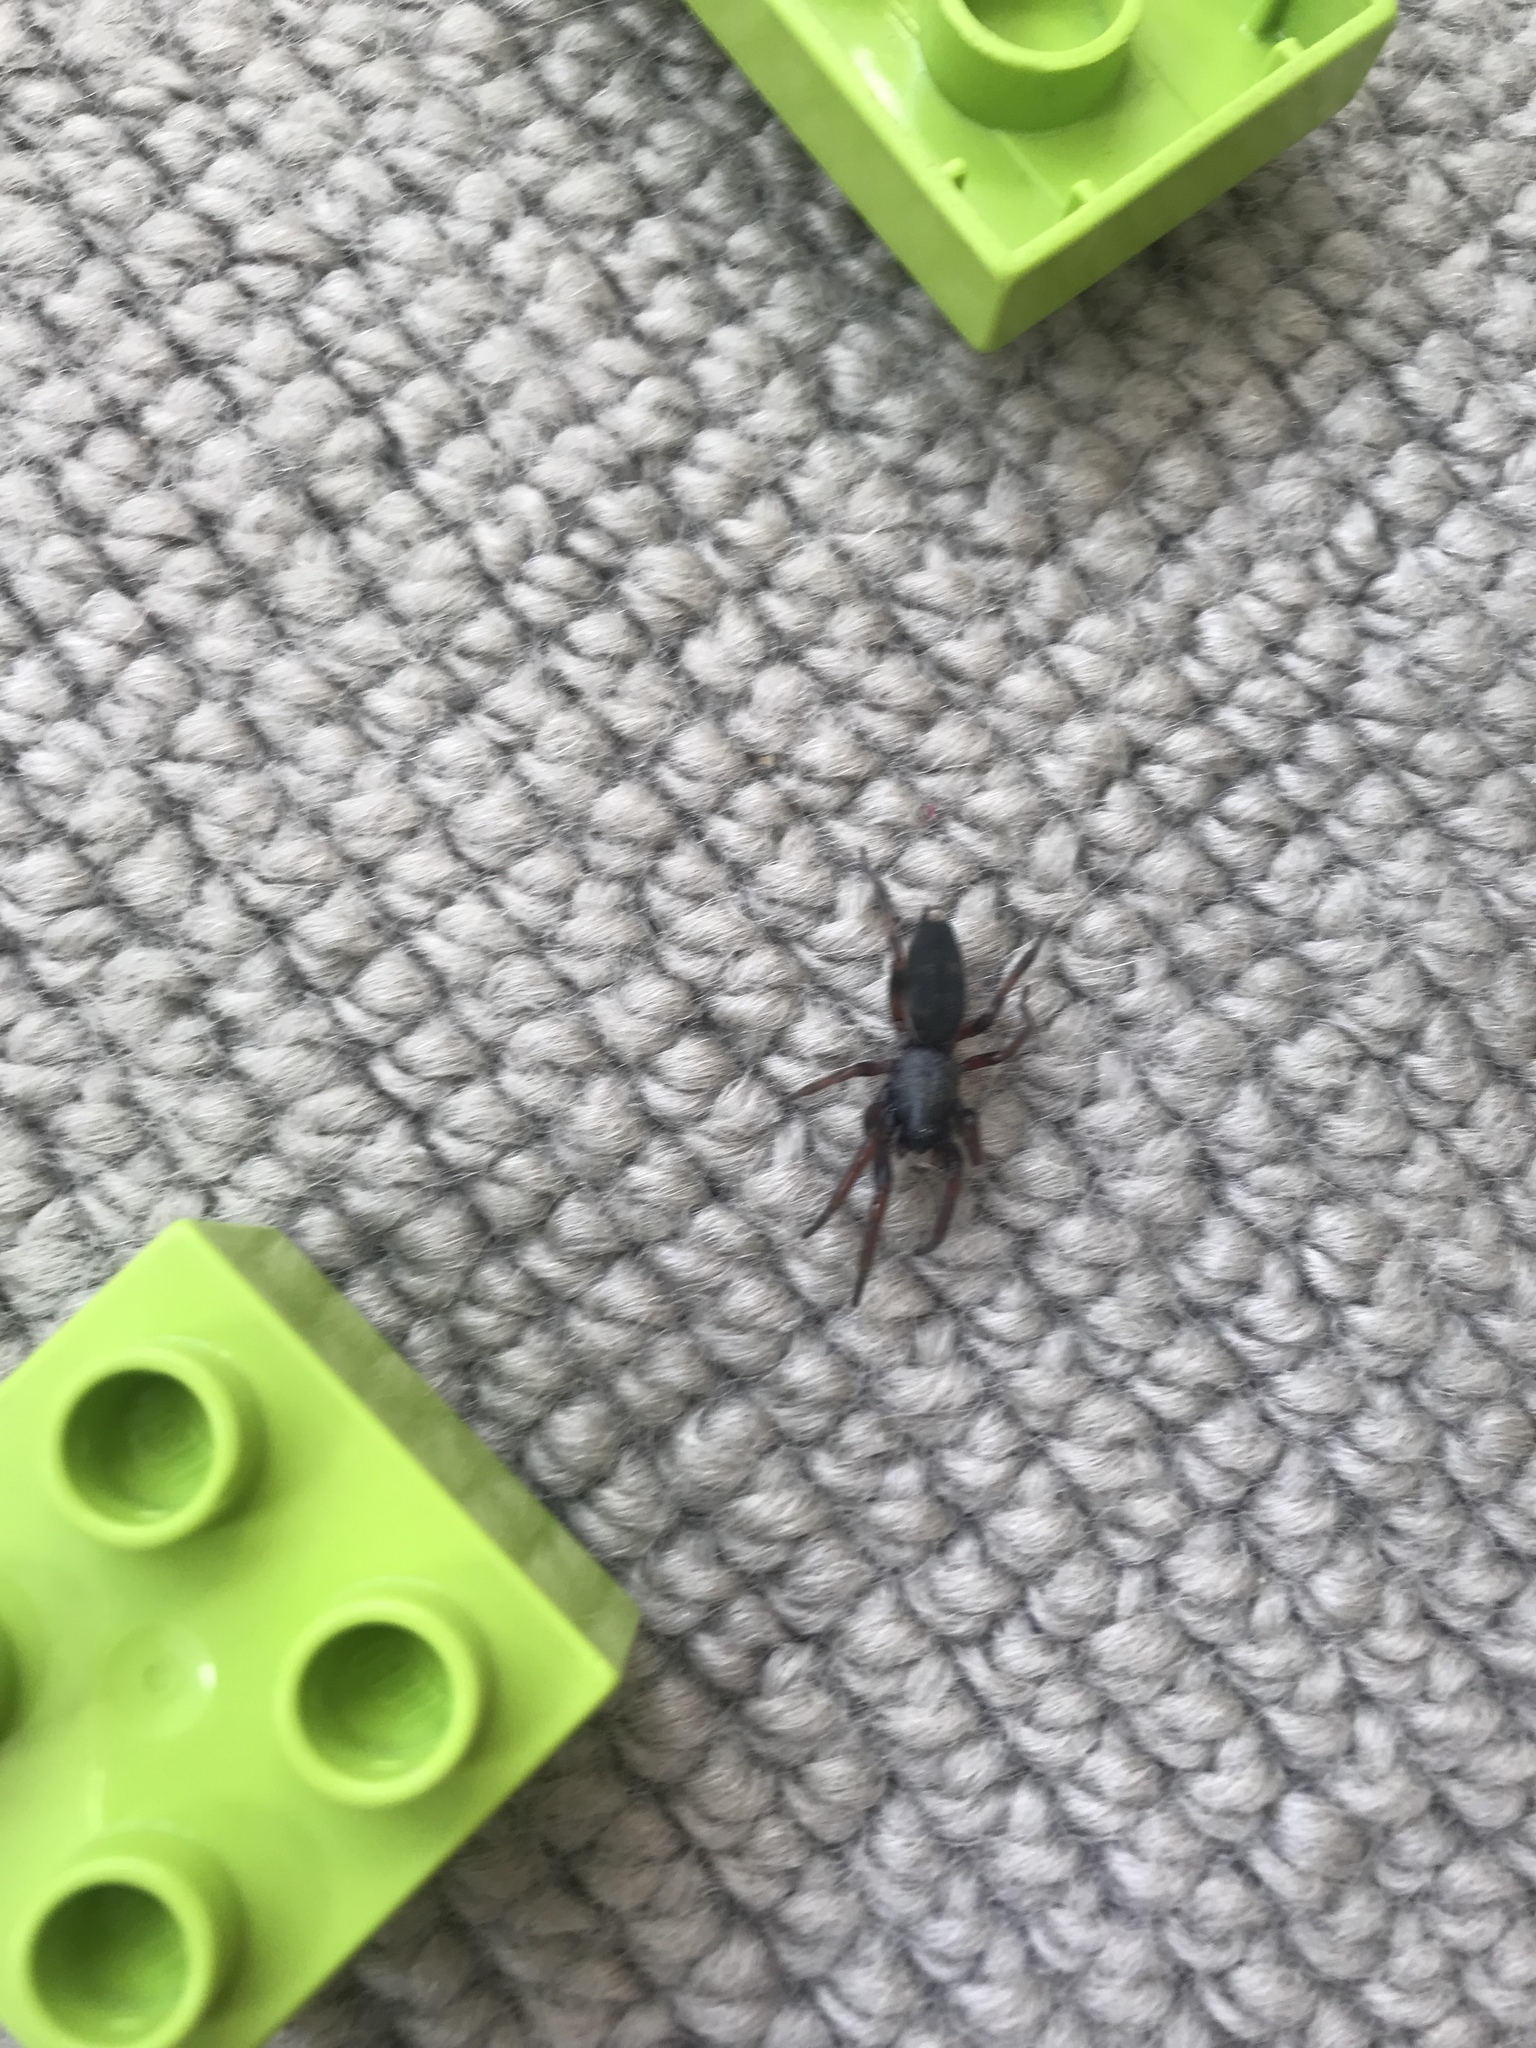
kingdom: Animalia
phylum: Arthropoda
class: Arachnida
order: Araneae
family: Lamponidae
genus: Lampona
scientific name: Lampona murina
